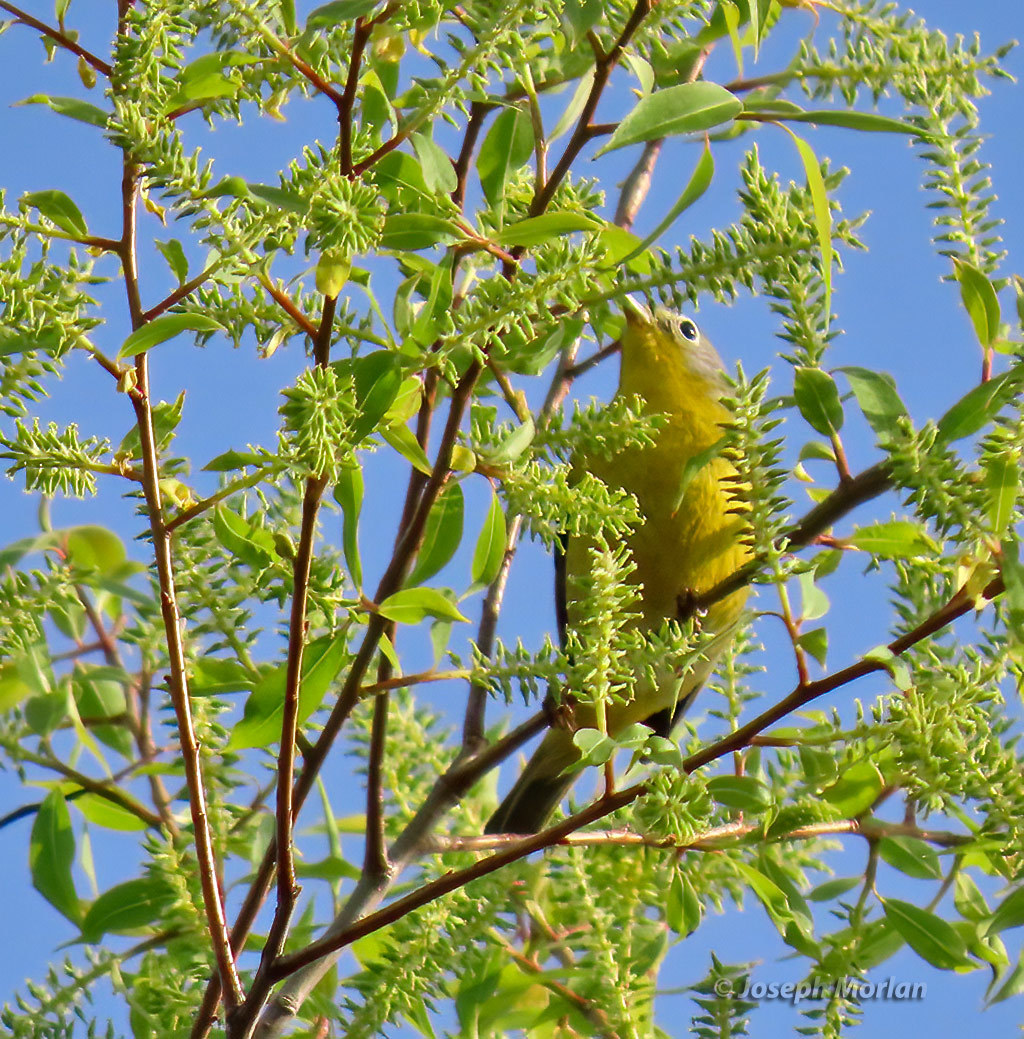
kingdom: Animalia
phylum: Chordata
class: Aves
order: Passeriformes
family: Parulidae
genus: Leiothlypis
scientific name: Leiothlypis ruficapilla
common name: Nashville warbler
